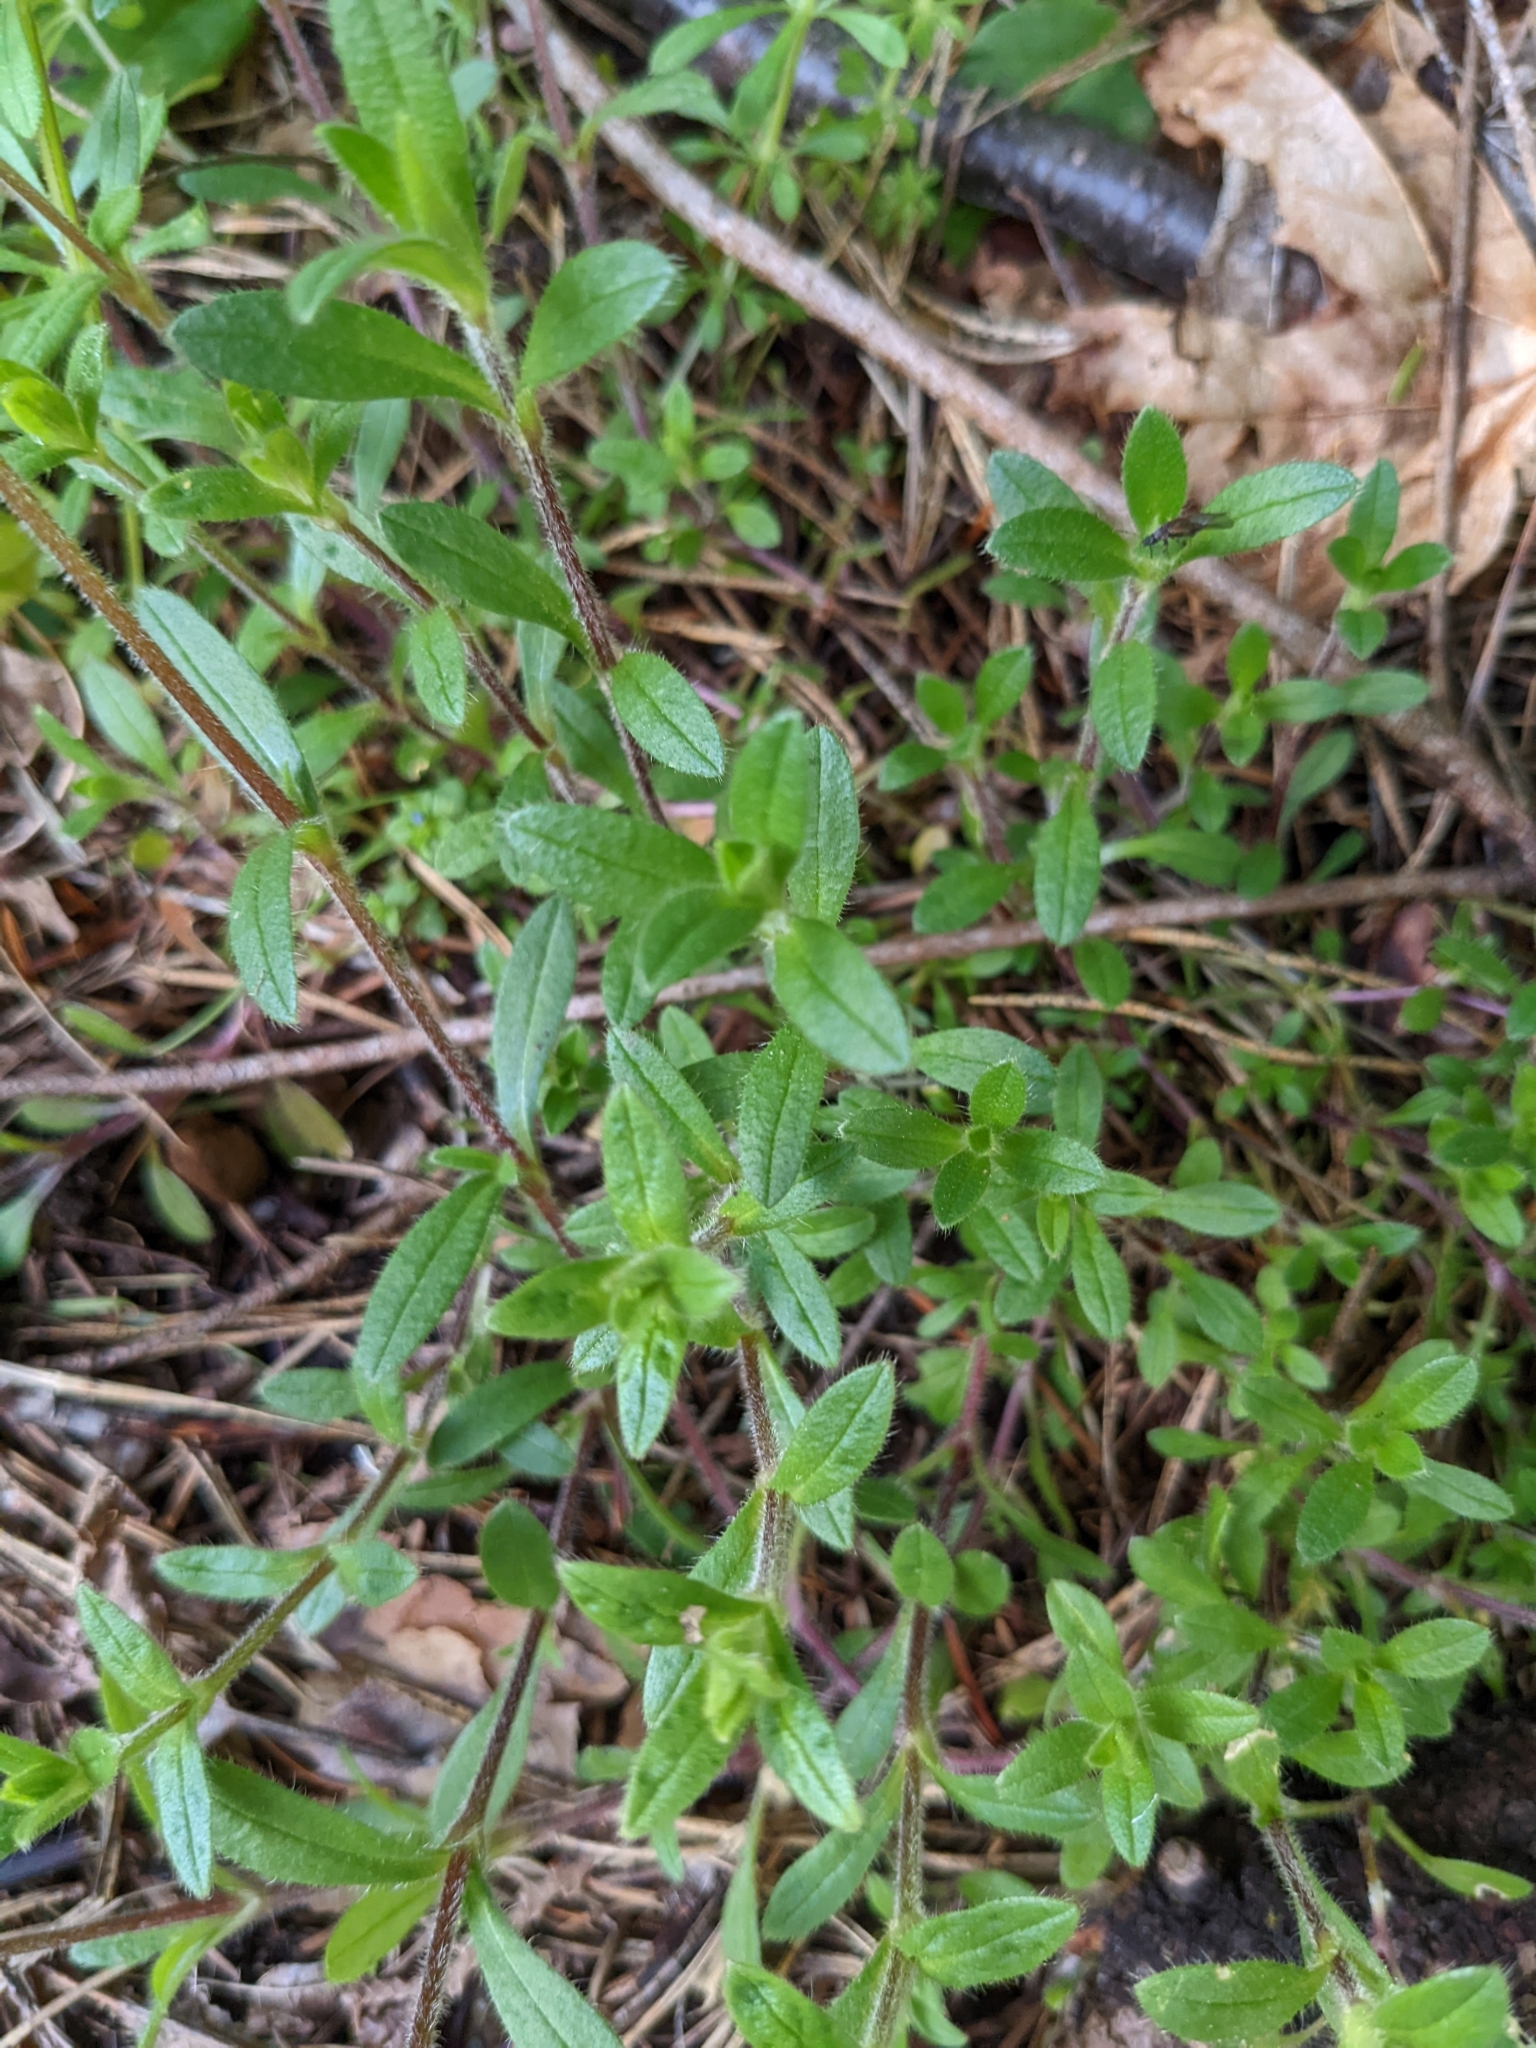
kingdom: Plantae
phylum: Tracheophyta
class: Magnoliopsida
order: Caryophyllales
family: Caryophyllaceae
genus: Cerastium
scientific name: Cerastium fontanum
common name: Common mouse-ear
